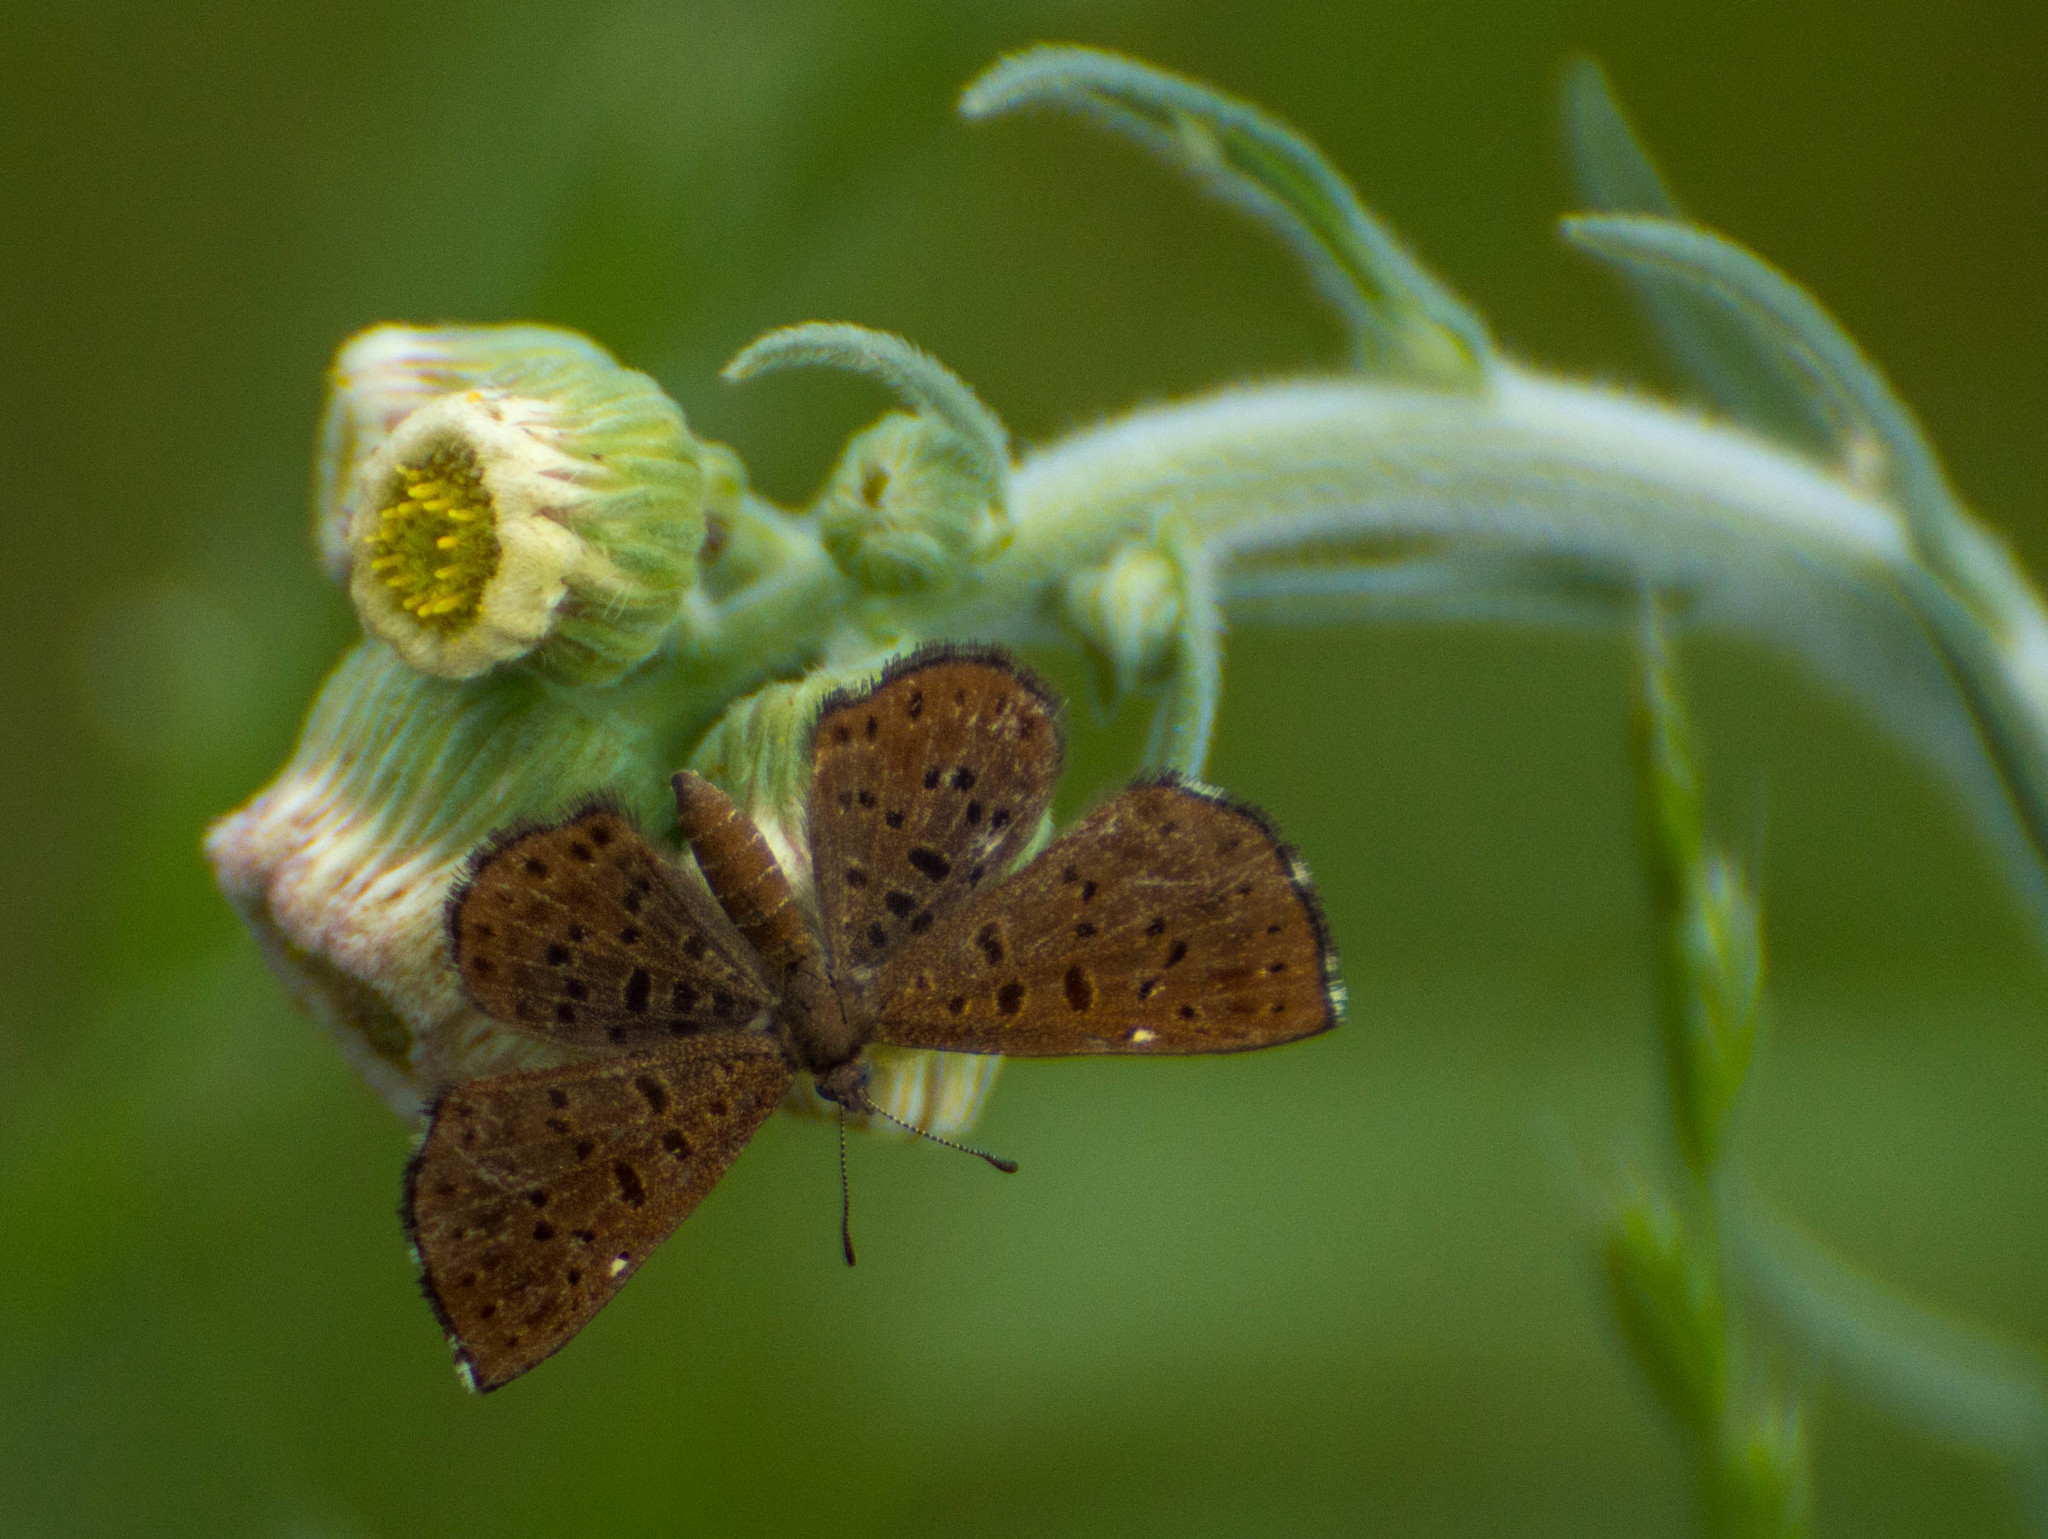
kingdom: Animalia
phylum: Arthropoda
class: Insecta
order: Lepidoptera
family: Riodinidae
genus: Teenie
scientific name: Teenie tinea
